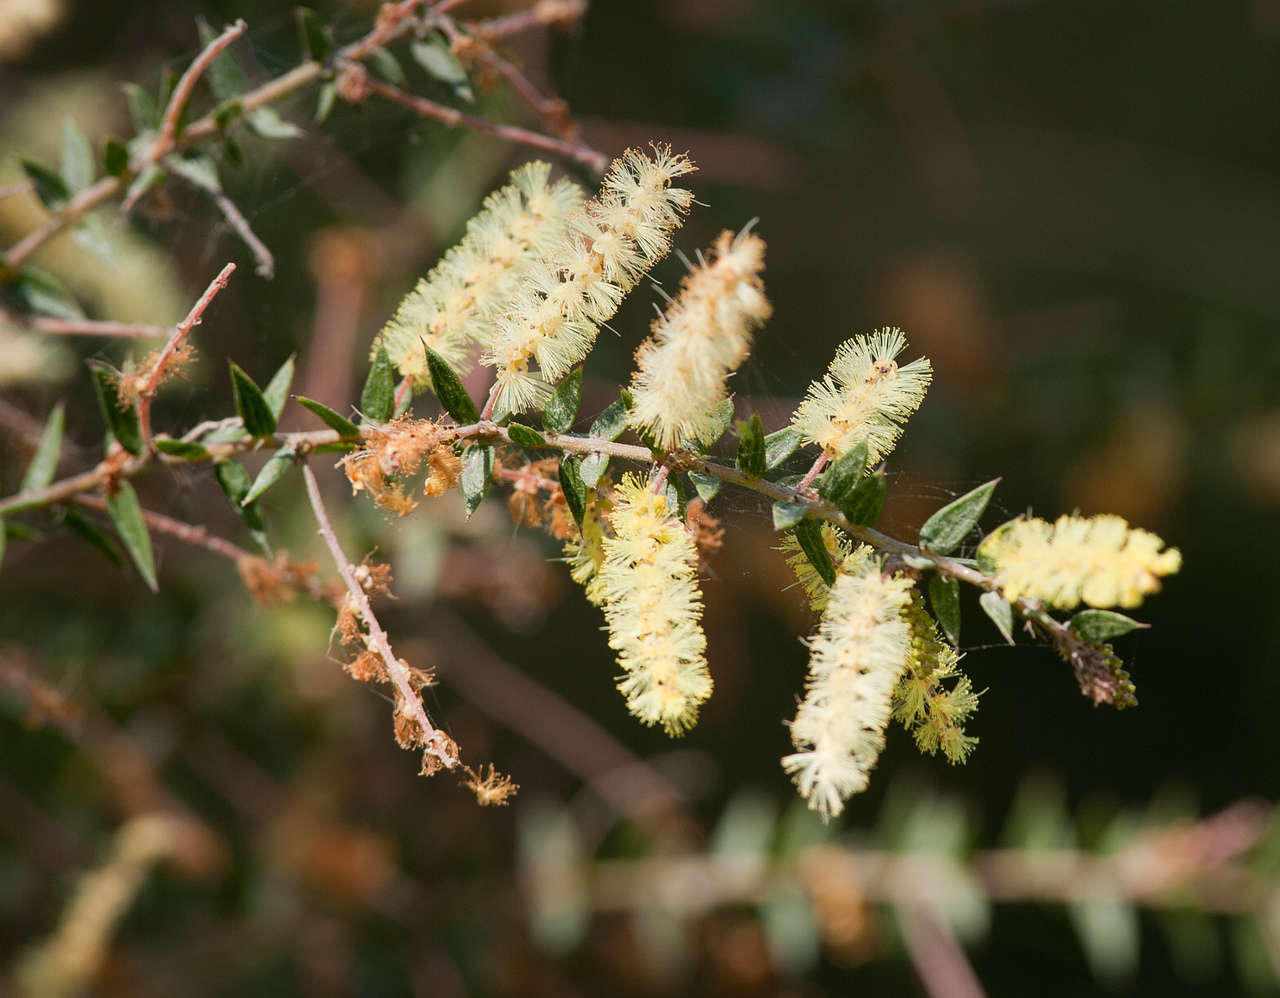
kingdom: Plantae
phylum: Tracheophyta
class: Magnoliopsida
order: Fabales
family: Fabaceae
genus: Acacia
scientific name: Acacia oxycedrus
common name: Spike wattle
